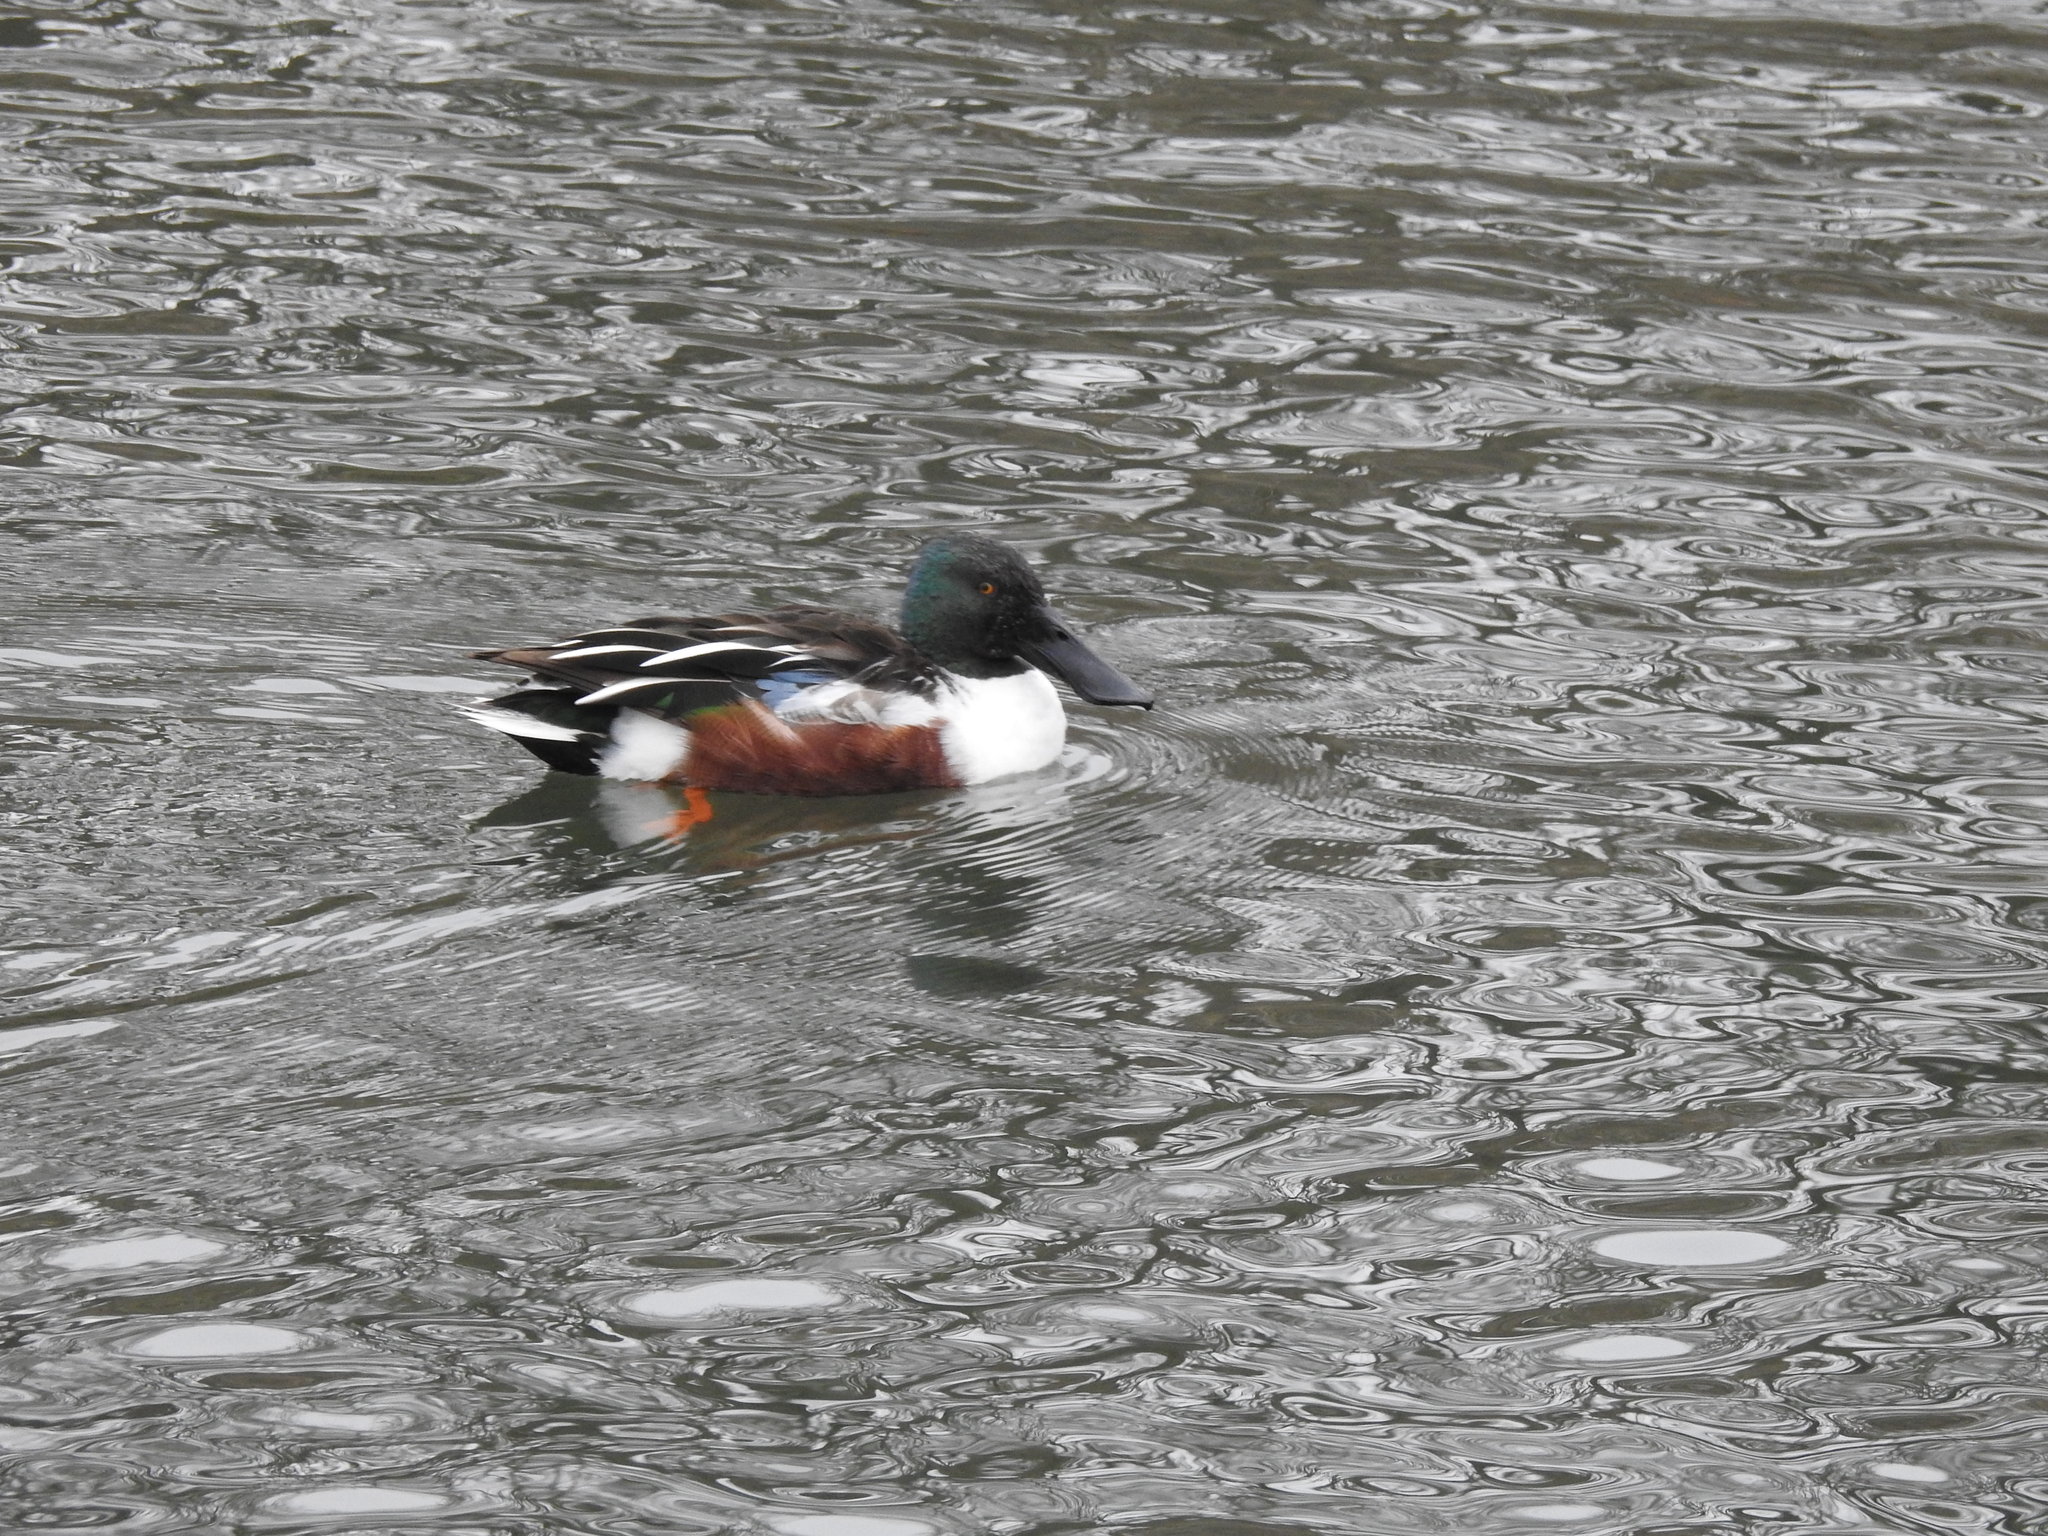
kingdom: Animalia
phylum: Chordata
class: Aves
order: Anseriformes
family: Anatidae
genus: Spatula
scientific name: Spatula clypeata
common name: Northern shoveler
